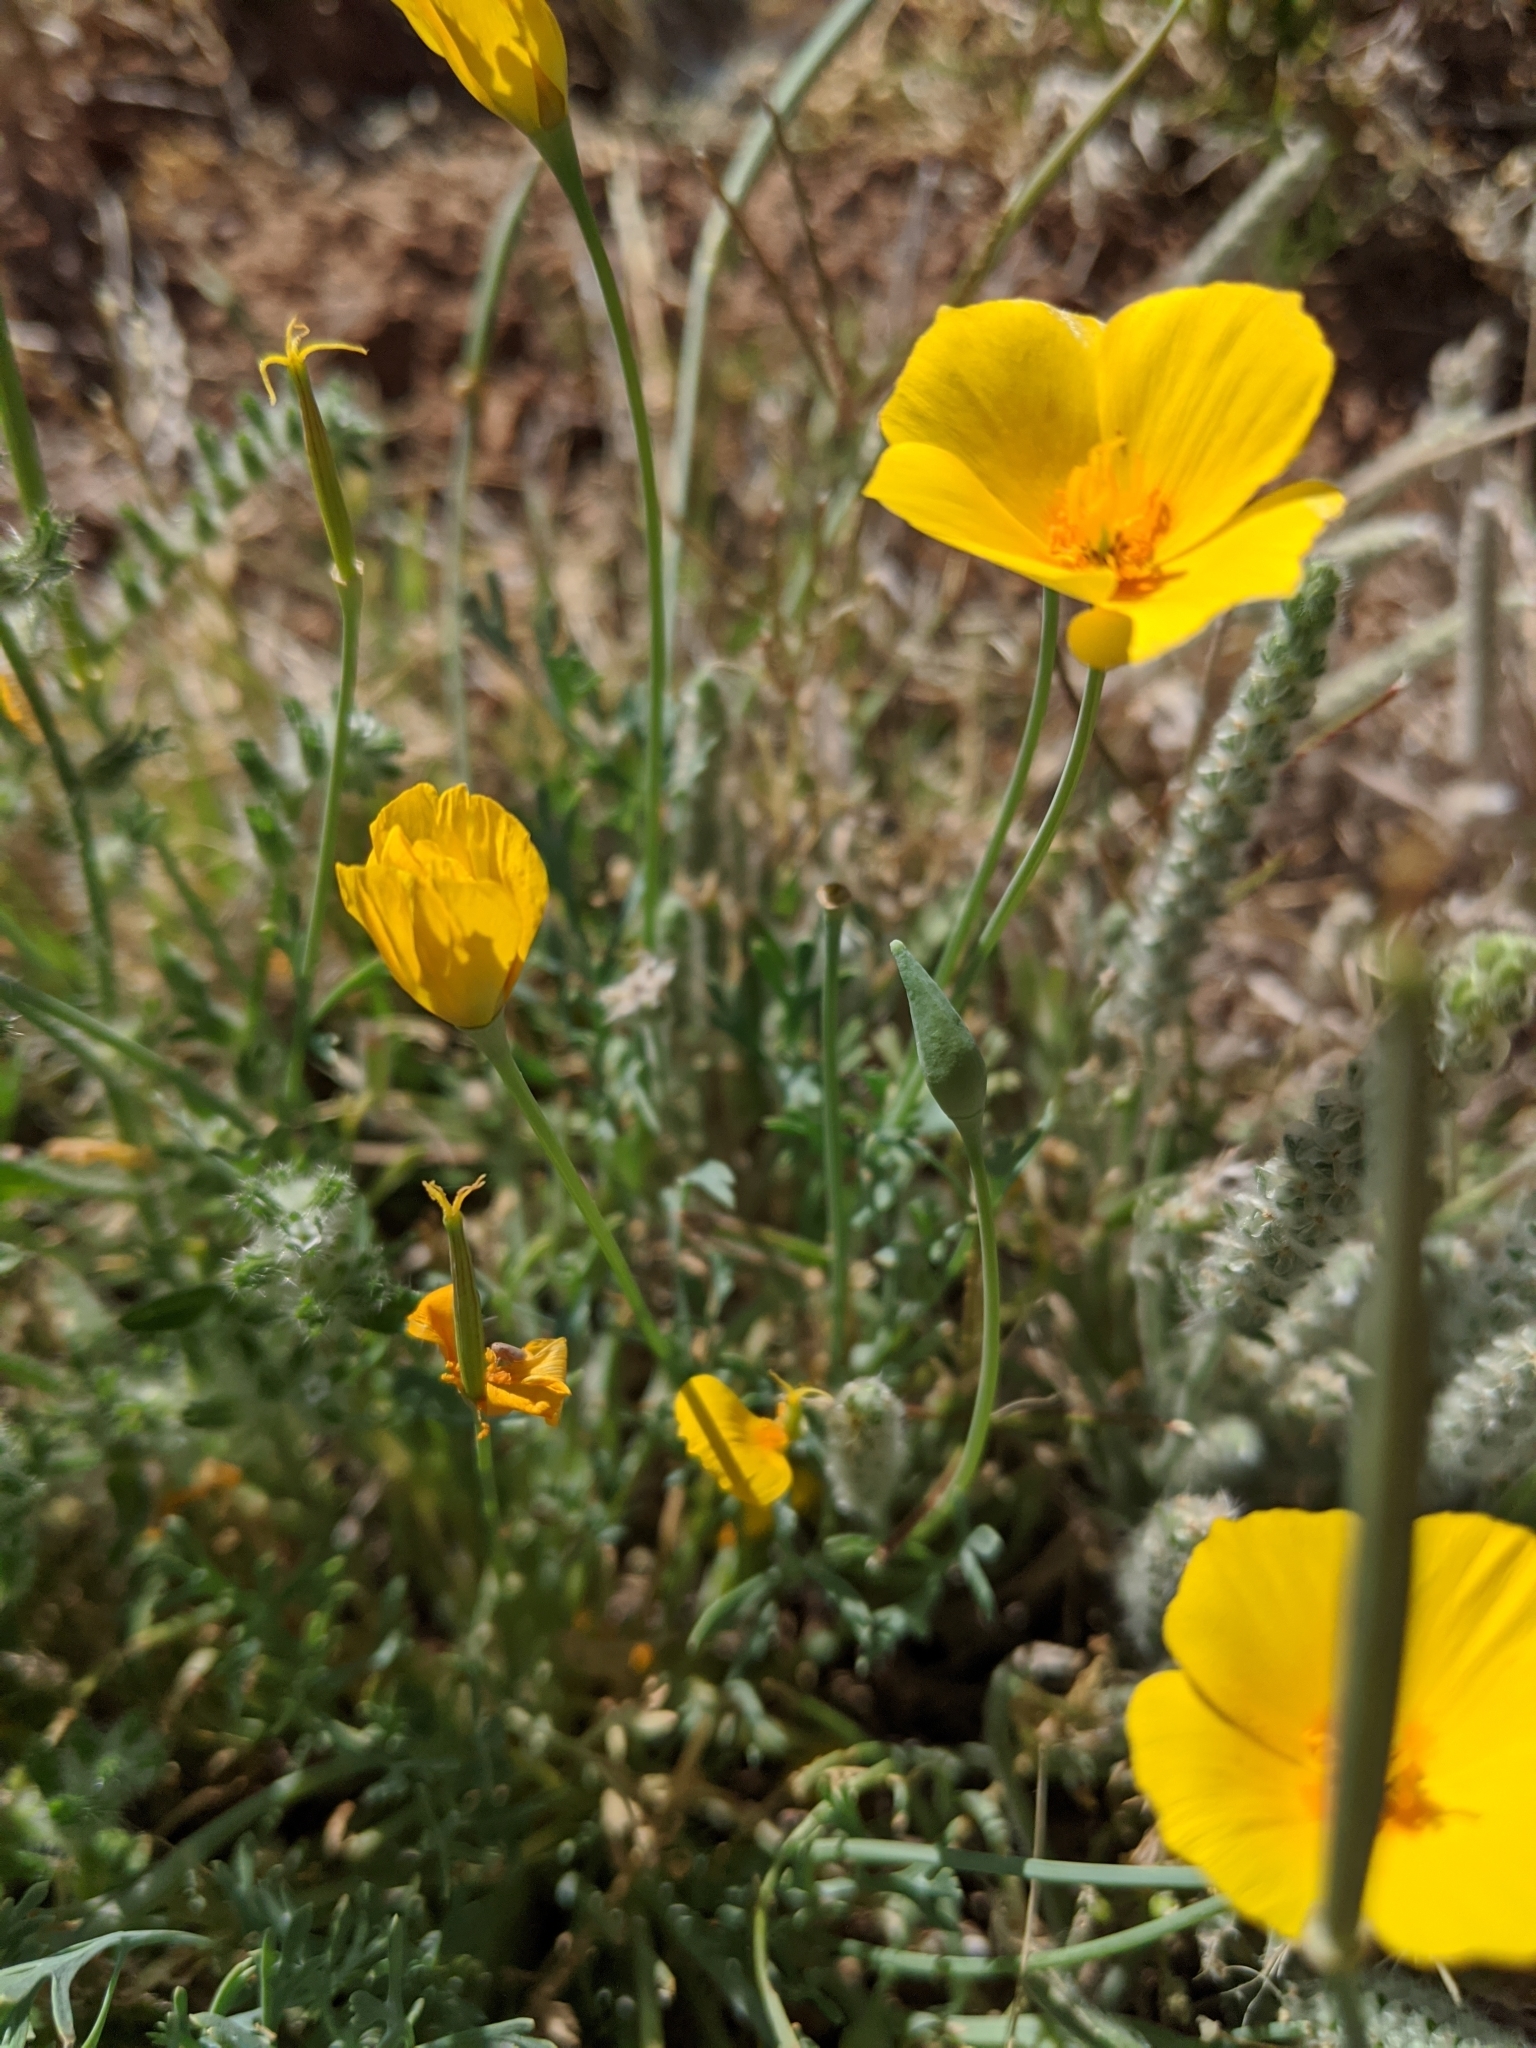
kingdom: Plantae
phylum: Tracheophyta
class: Magnoliopsida
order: Ranunculales
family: Papaveraceae
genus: Eschscholzia
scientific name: Eschscholzia californica
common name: California poppy
